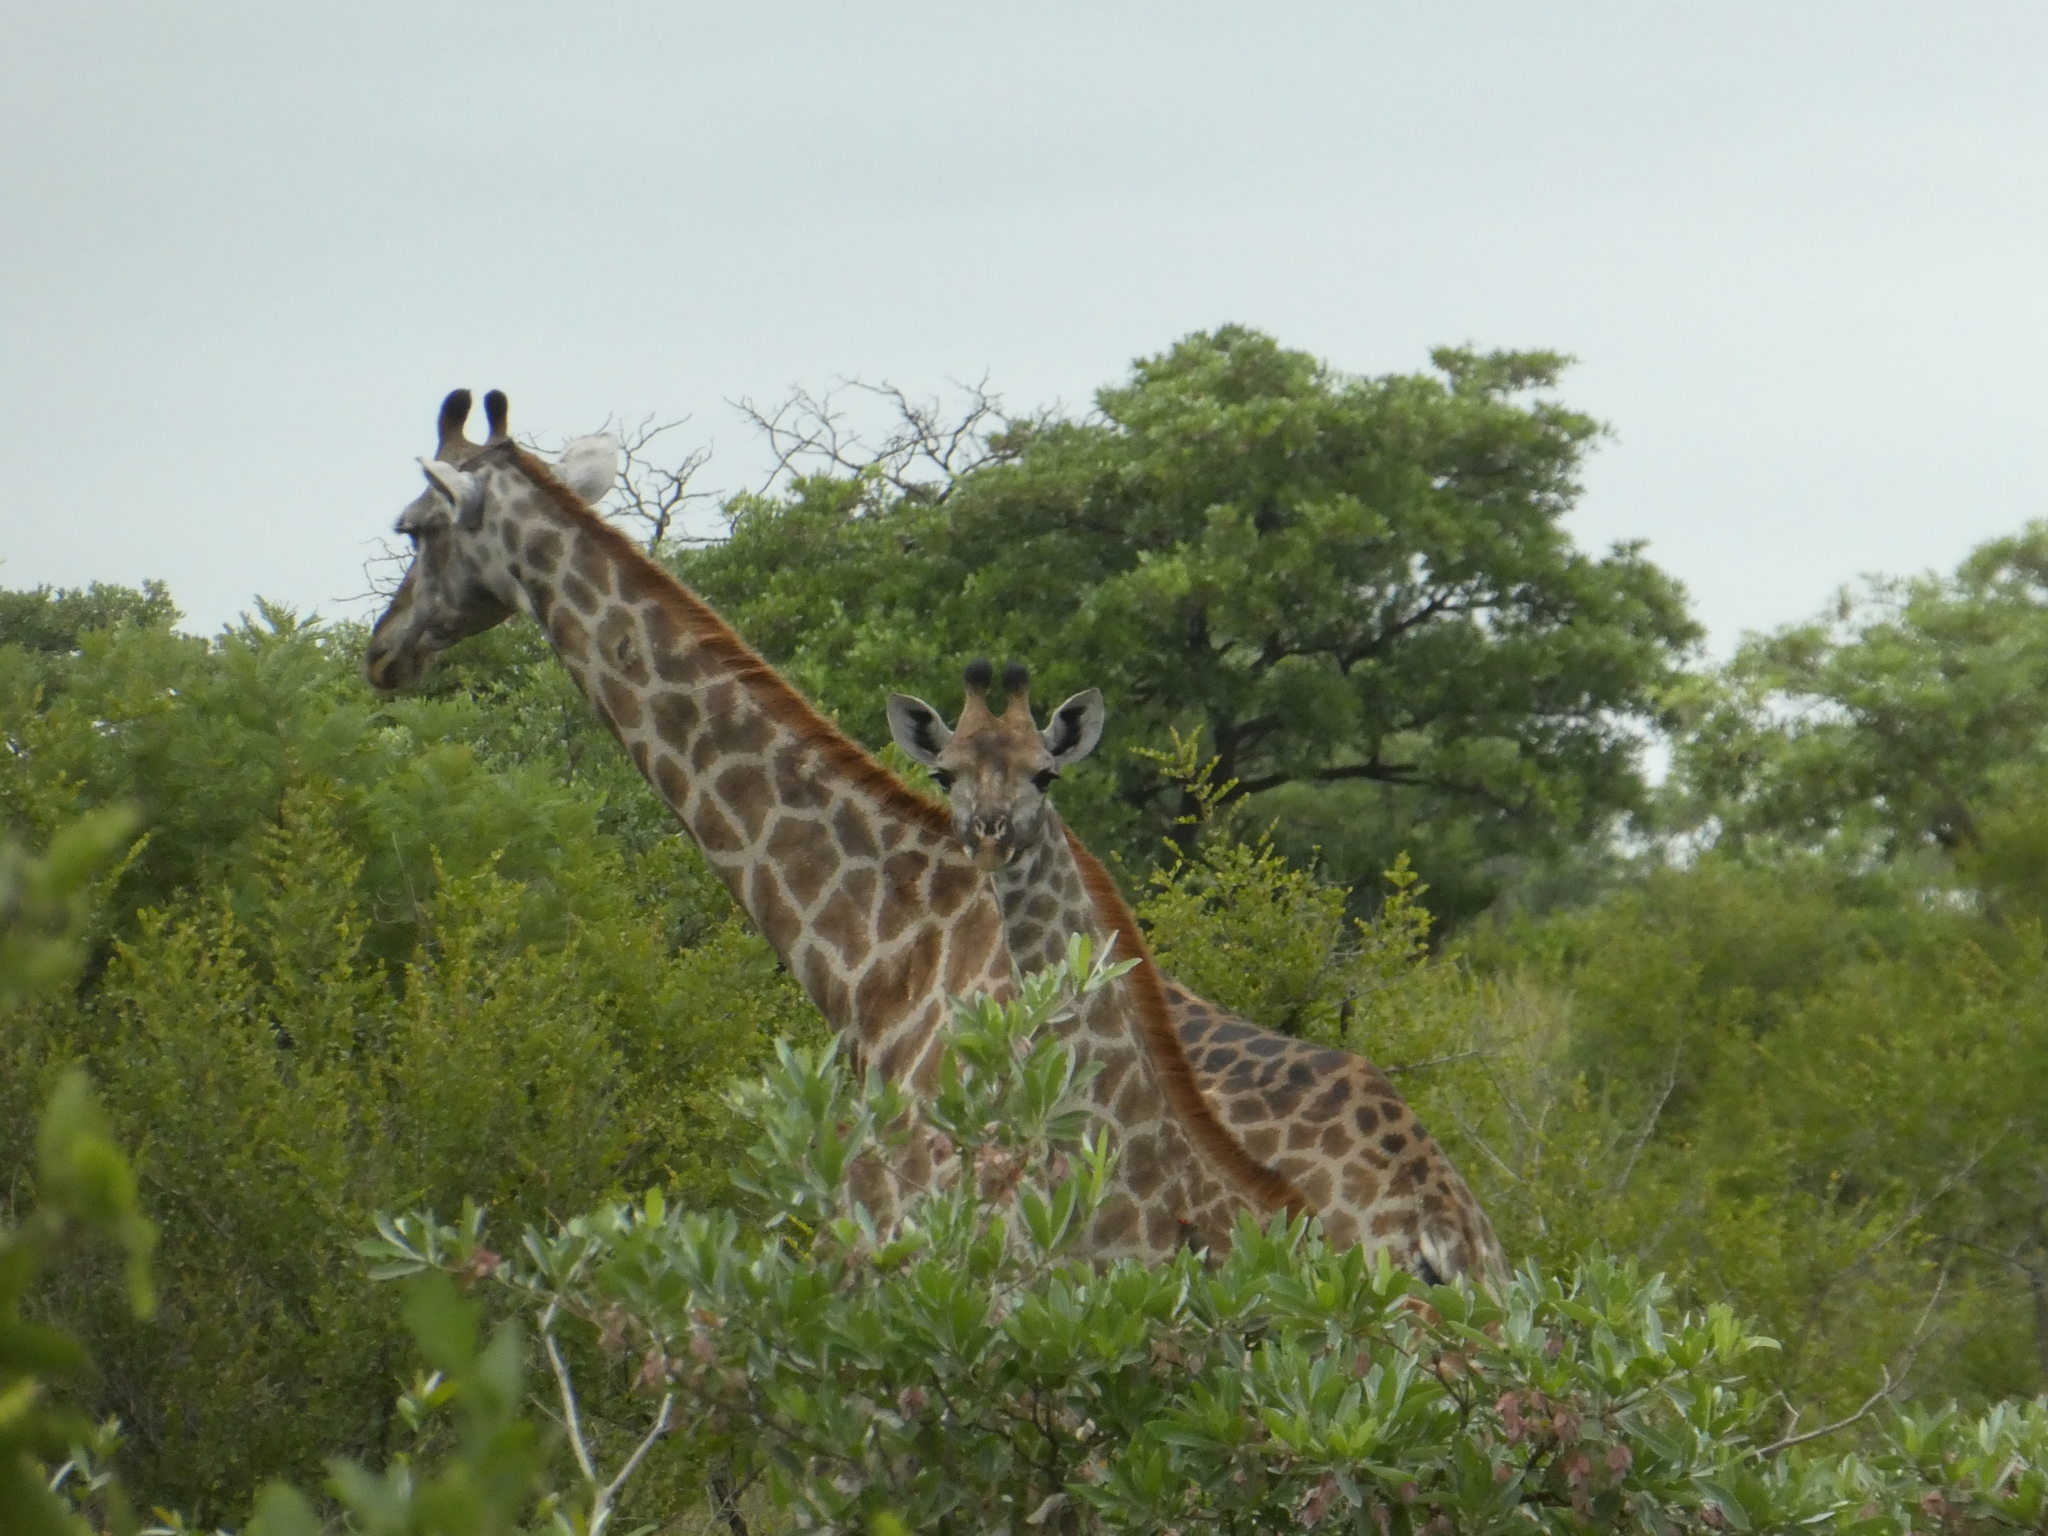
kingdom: Animalia
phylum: Chordata
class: Mammalia
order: Artiodactyla
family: Giraffidae
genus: Giraffa
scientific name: Giraffa giraffa
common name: Southern giraffe
